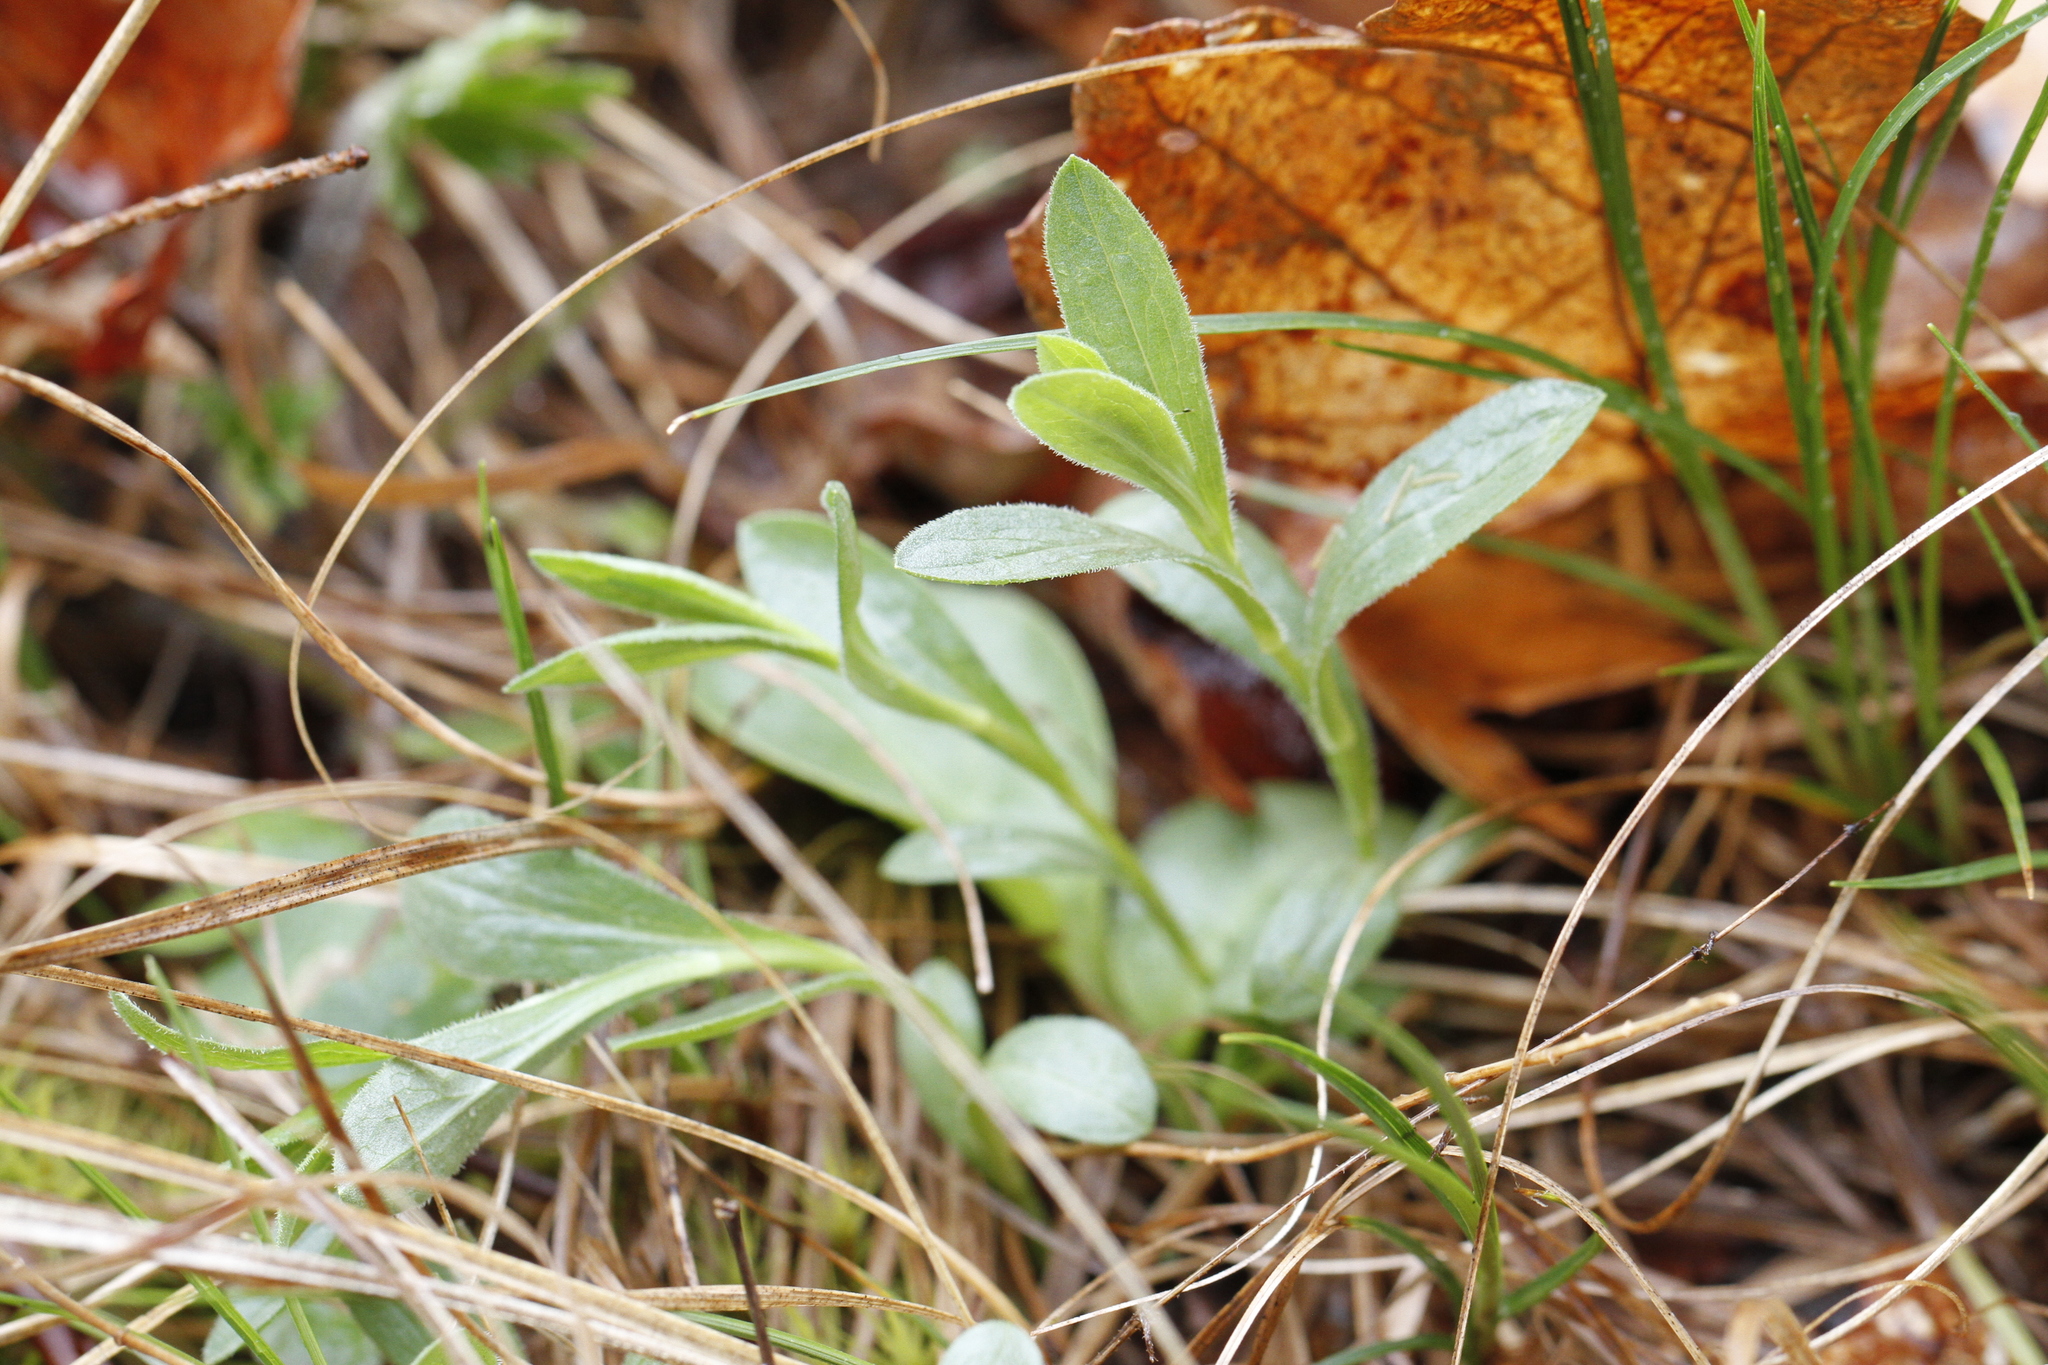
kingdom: Plantae
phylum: Tracheophyta
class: Magnoliopsida
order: Asterales
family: Asteraceae
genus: Sericocarpus
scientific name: Sericocarpus rigidus
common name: Columbia white-top aster
